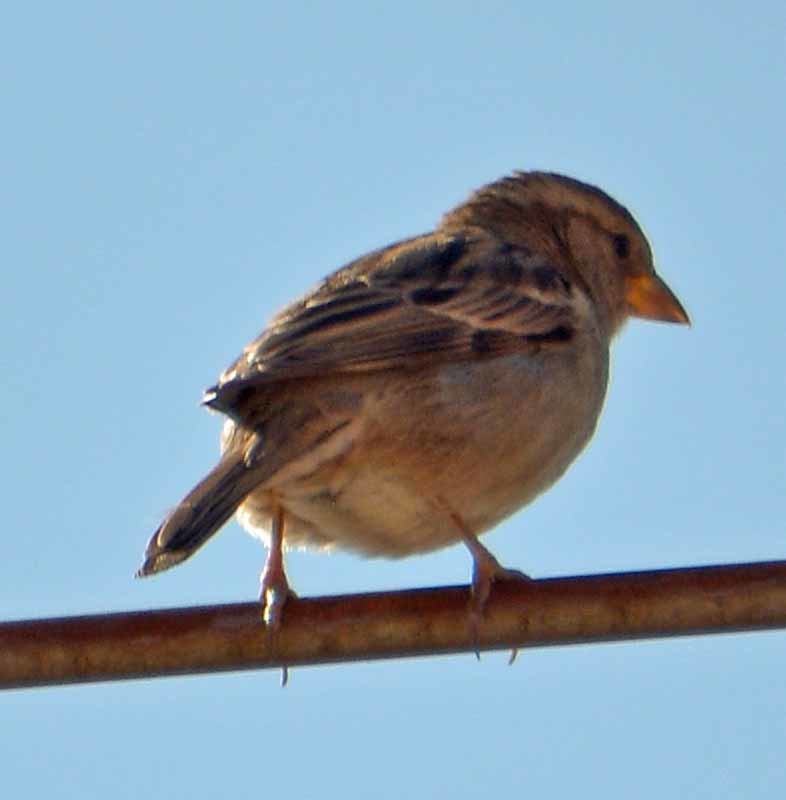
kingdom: Animalia
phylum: Chordata
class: Aves
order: Passeriformes
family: Passeridae
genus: Passer
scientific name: Passer domesticus
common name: House sparrow
